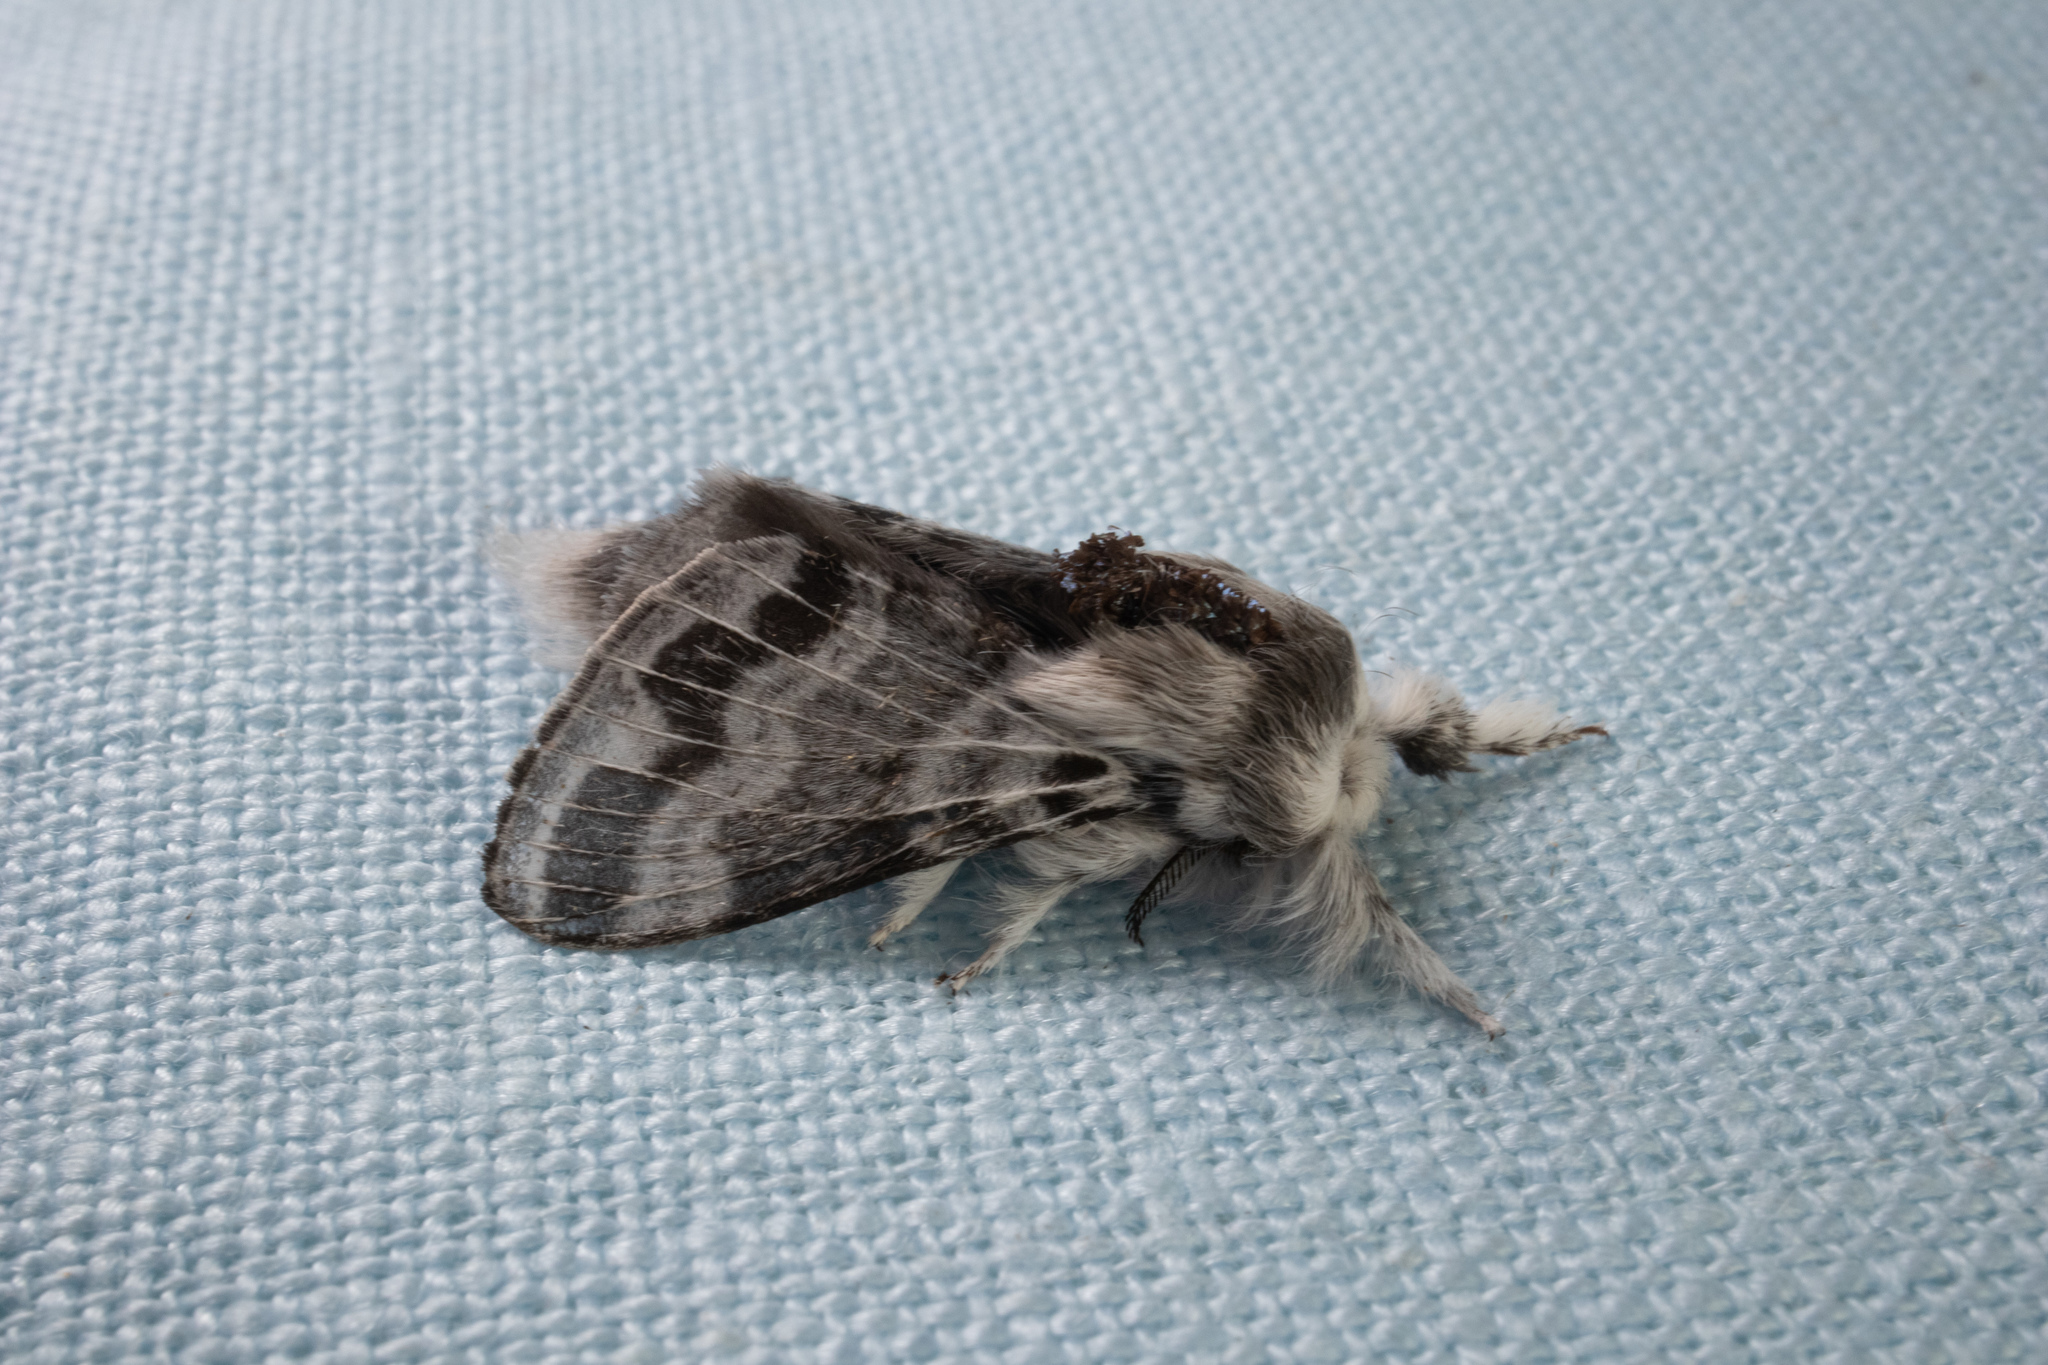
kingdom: Animalia
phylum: Arthropoda
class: Insecta
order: Lepidoptera
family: Lasiocampidae
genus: Tolype
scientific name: Tolype notialis
